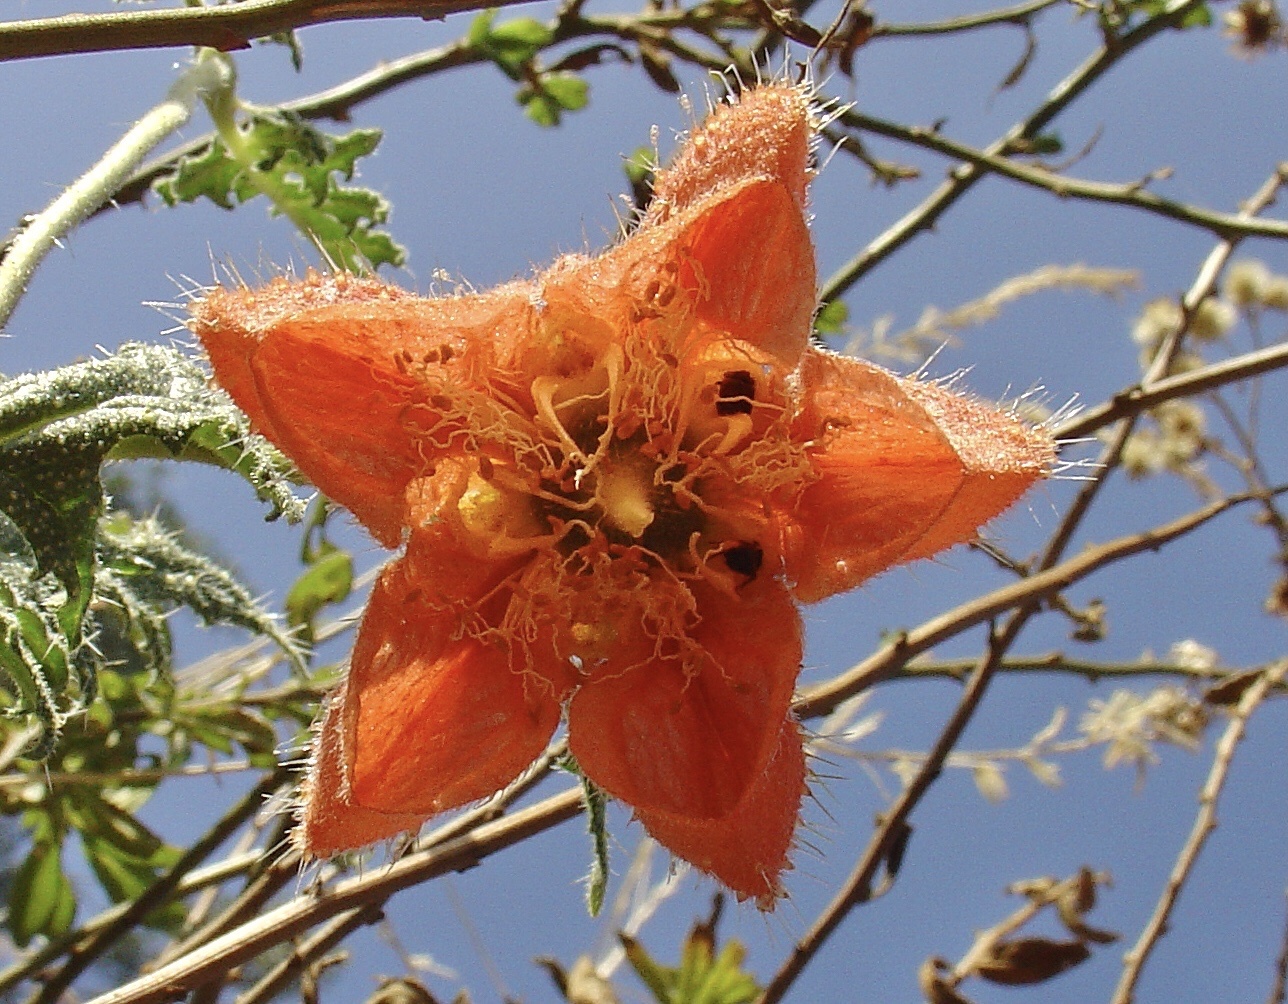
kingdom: Plantae
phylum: Tracheophyta
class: Magnoliopsida
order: Cornales
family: Loasaceae
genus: Caiophora
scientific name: Caiophora cirsiifolia
